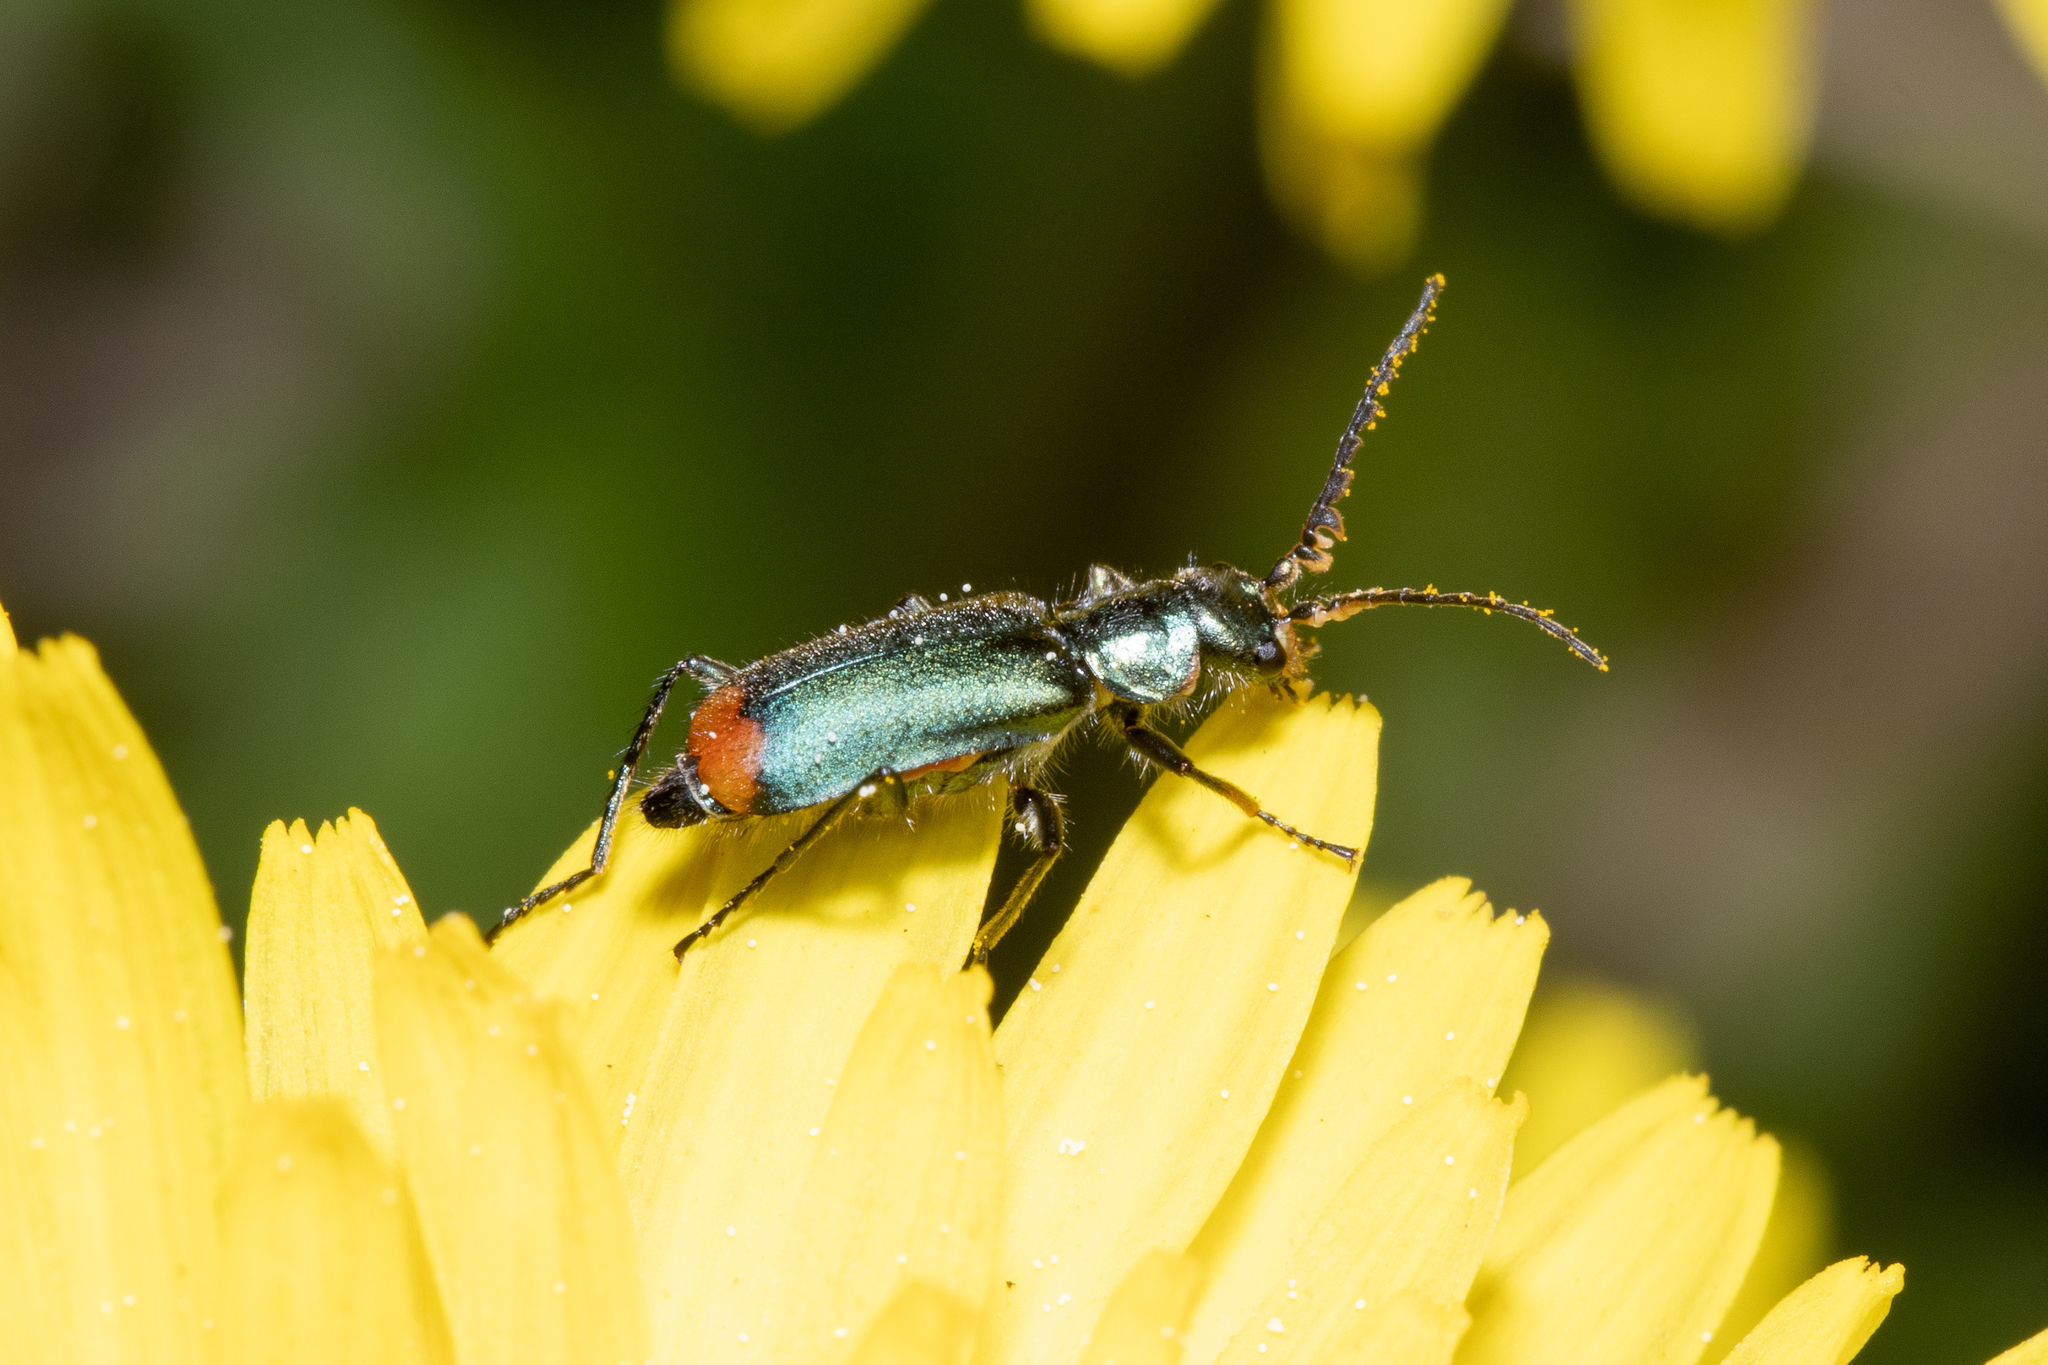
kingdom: Animalia
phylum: Arthropoda
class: Insecta
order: Coleoptera
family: Melyridae
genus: Malachius
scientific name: Malachius bipustulatus
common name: Malachite beetle
